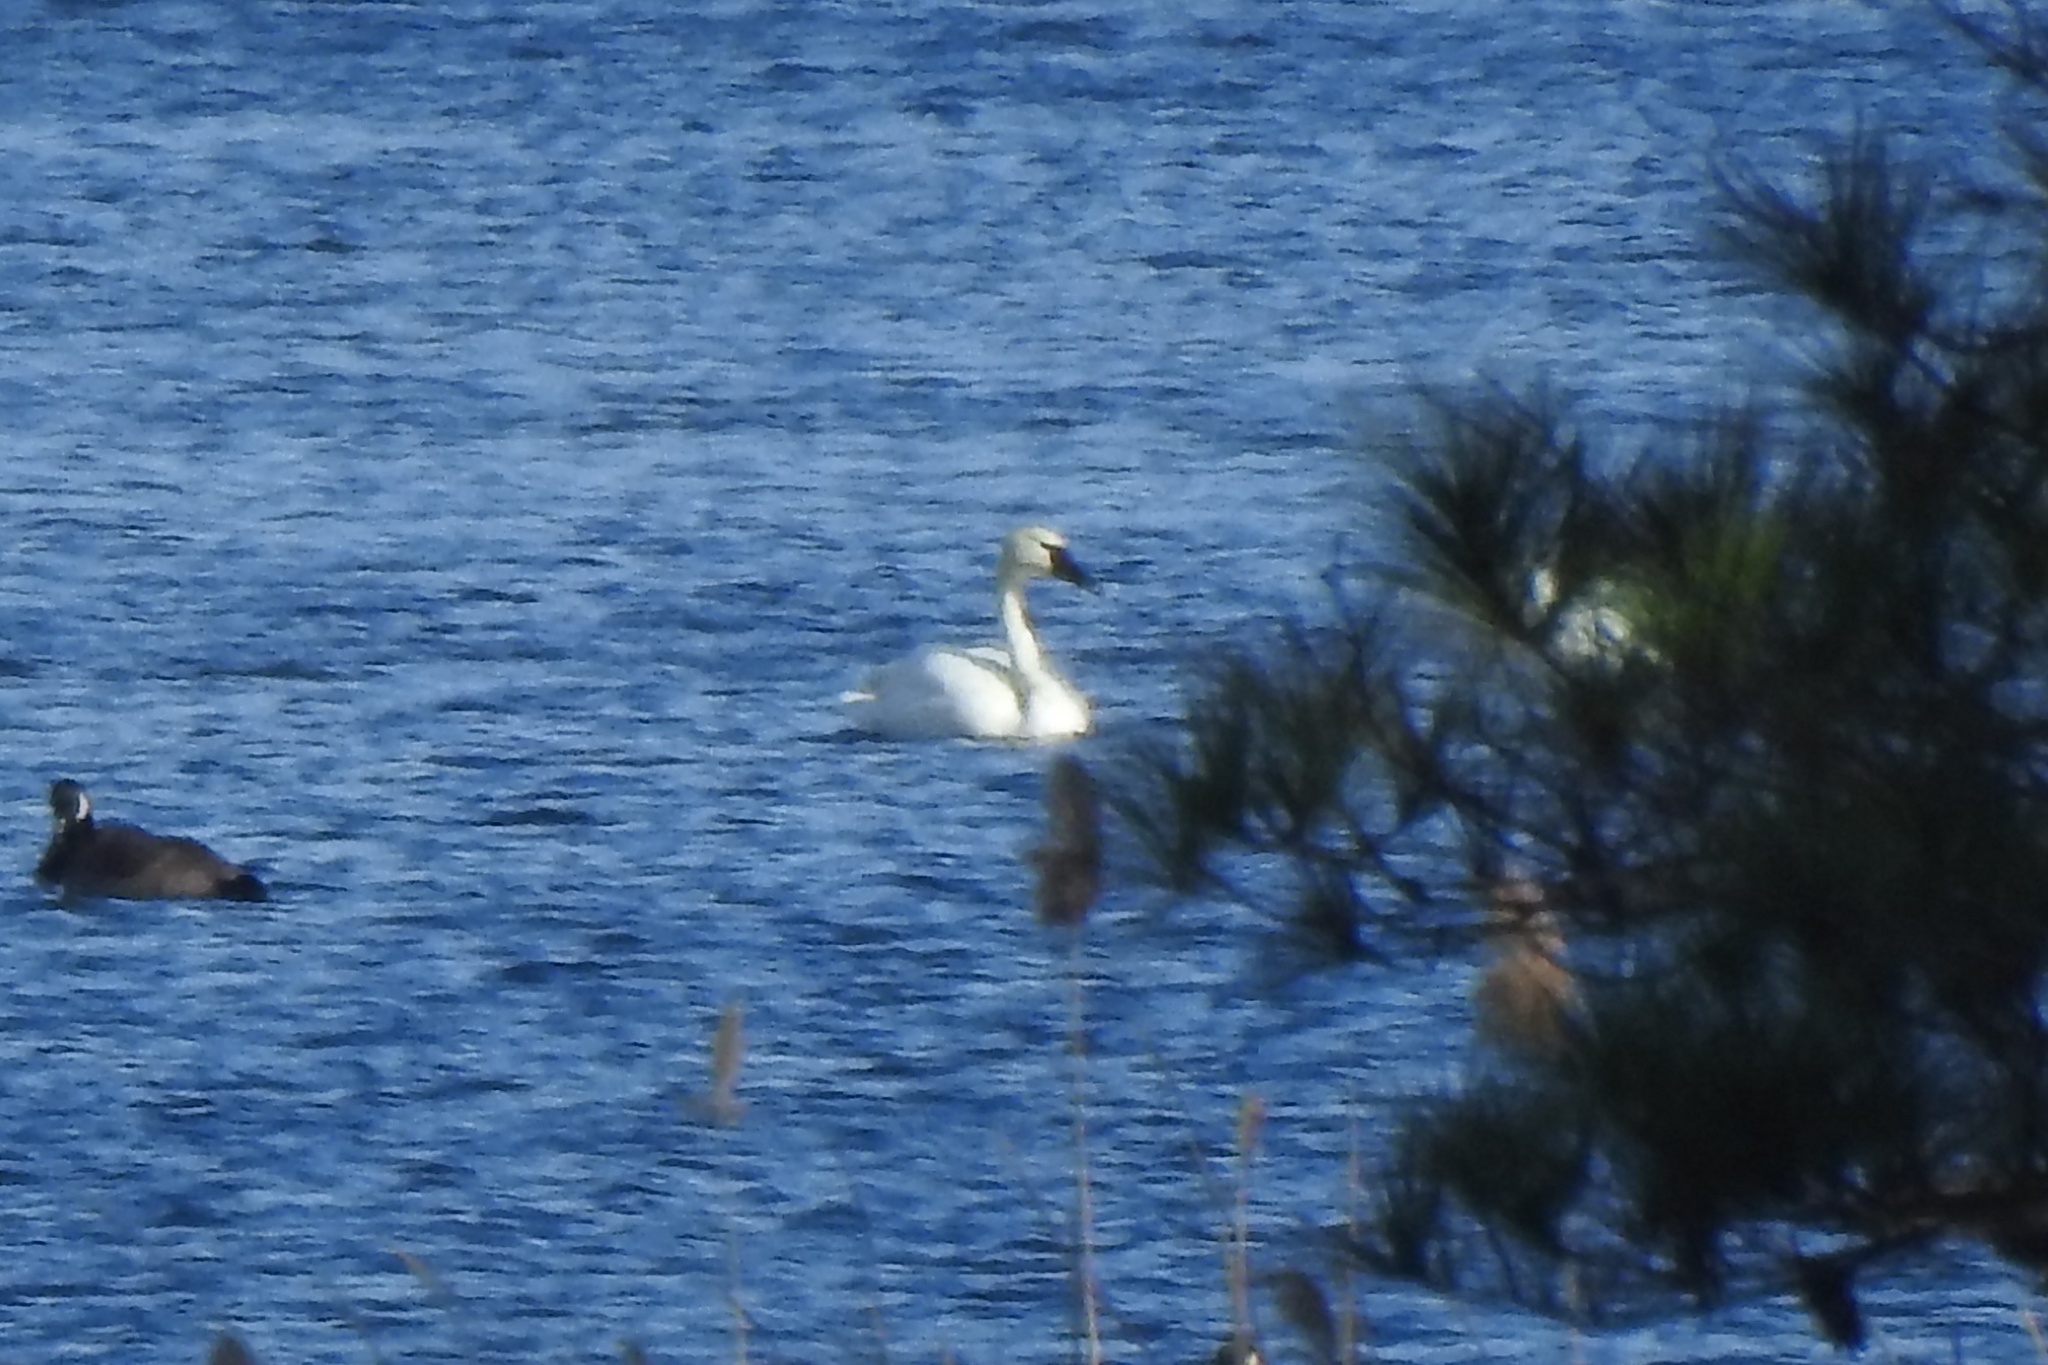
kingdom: Animalia
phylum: Chordata
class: Aves
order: Anseriformes
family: Anatidae
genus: Cygnus
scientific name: Cygnus columbianus
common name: Tundra swan
